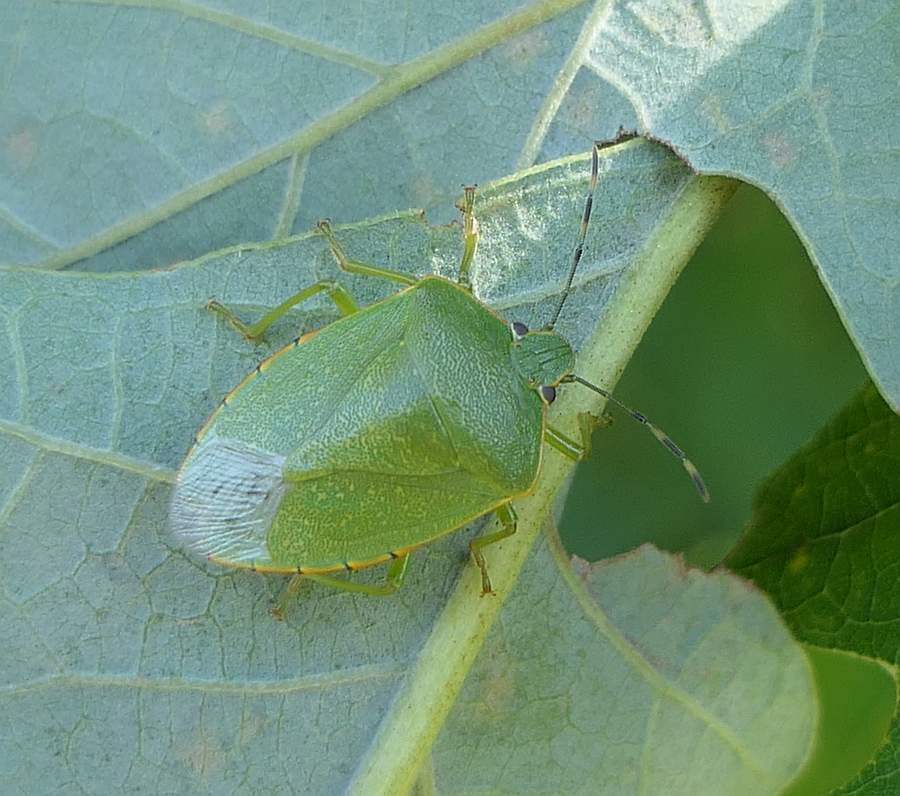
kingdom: Animalia
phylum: Arthropoda
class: Insecta
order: Hemiptera
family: Pentatomidae
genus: Chinavia
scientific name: Chinavia hilaris
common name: Green stink bug
